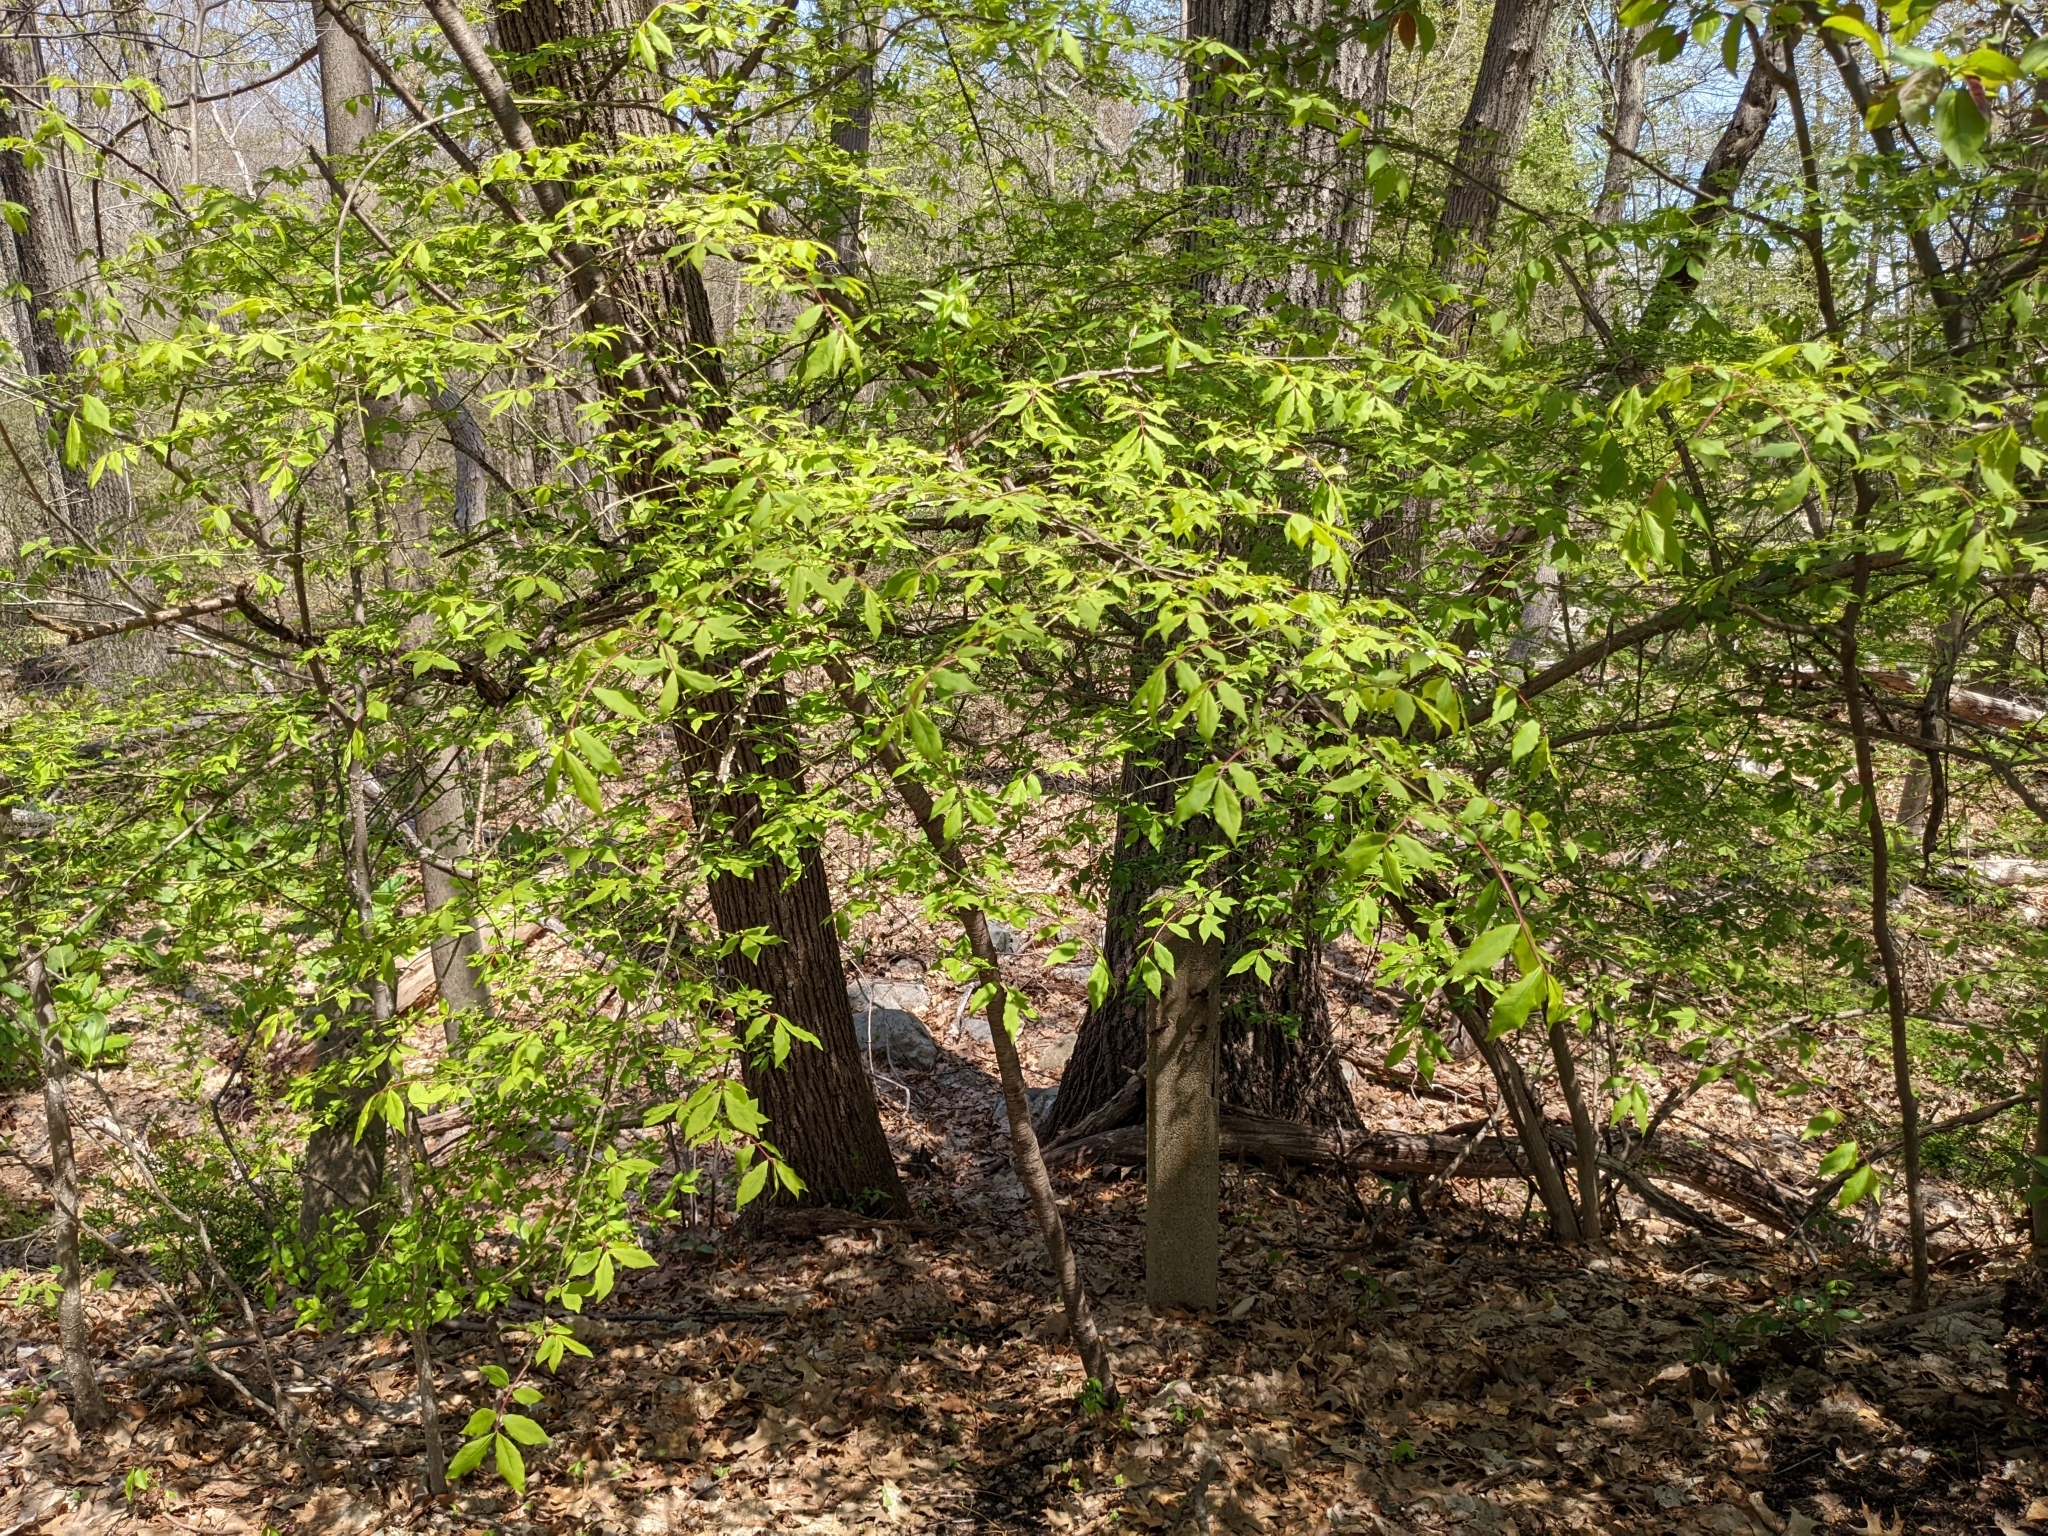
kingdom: Plantae
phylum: Tracheophyta
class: Magnoliopsida
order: Celastrales
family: Celastraceae
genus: Euonymus
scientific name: Euonymus alatus
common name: Winged euonymus
